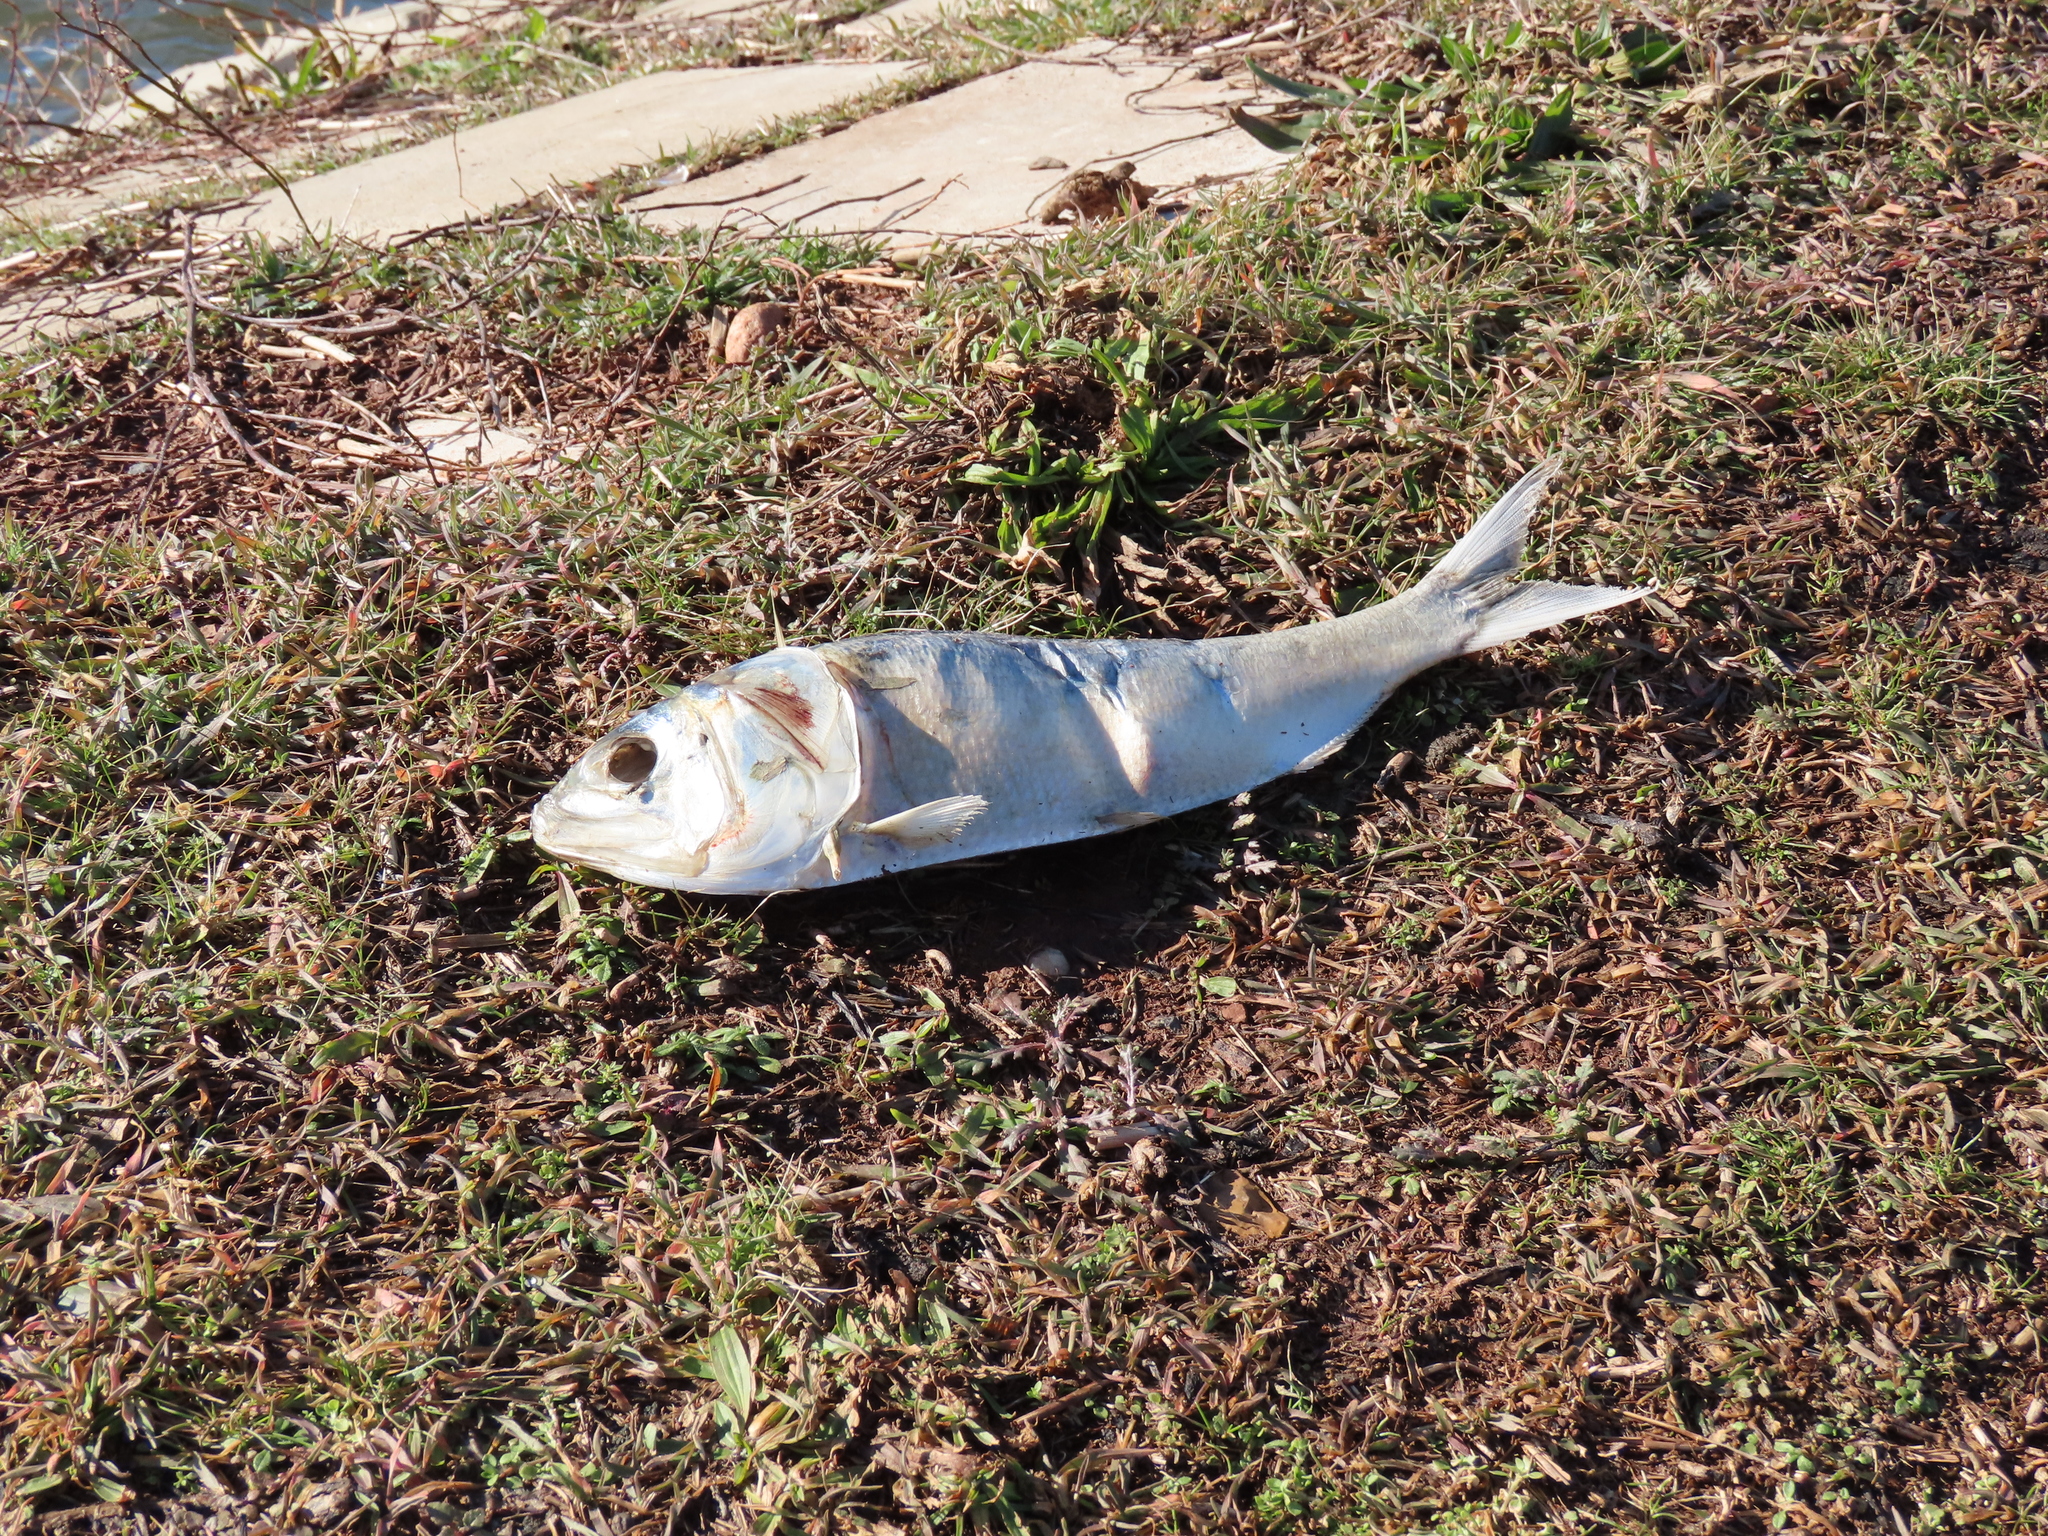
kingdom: Animalia
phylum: Chordata
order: Clupeiformes
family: Clupeidae
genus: Brevoortia
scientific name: Brevoortia tyrannus
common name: Atlantic menhaden
